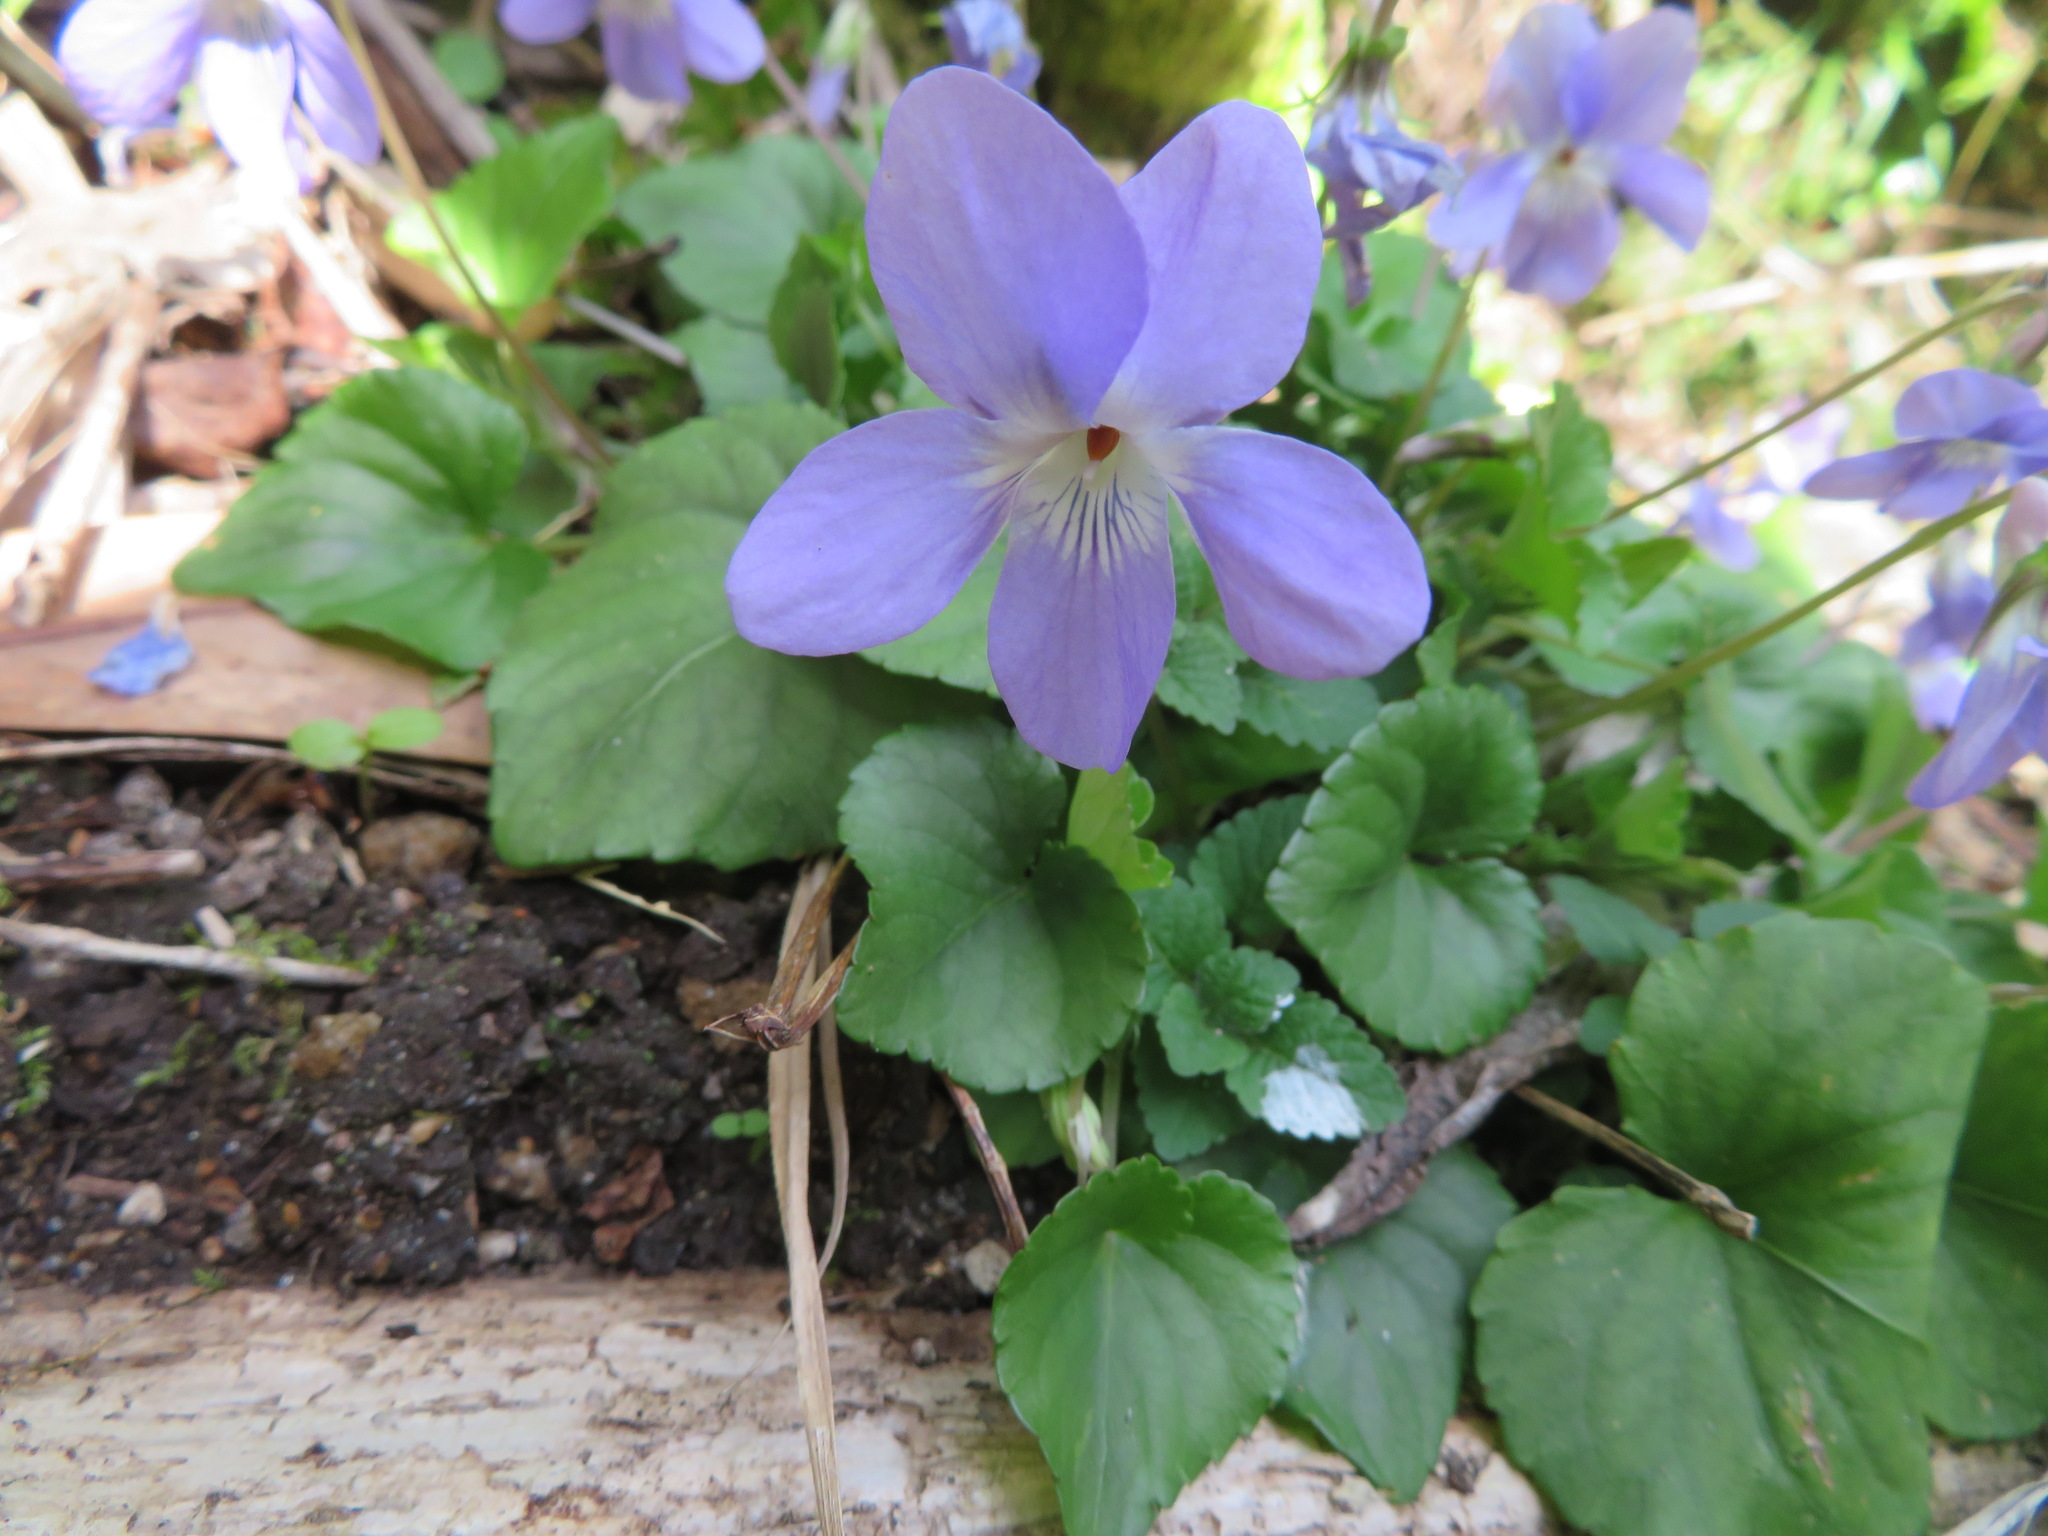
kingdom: Plantae
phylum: Tracheophyta
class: Magnoliopsida
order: Malpighiales
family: Violaceae
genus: Viola
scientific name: Viola grypoceras
